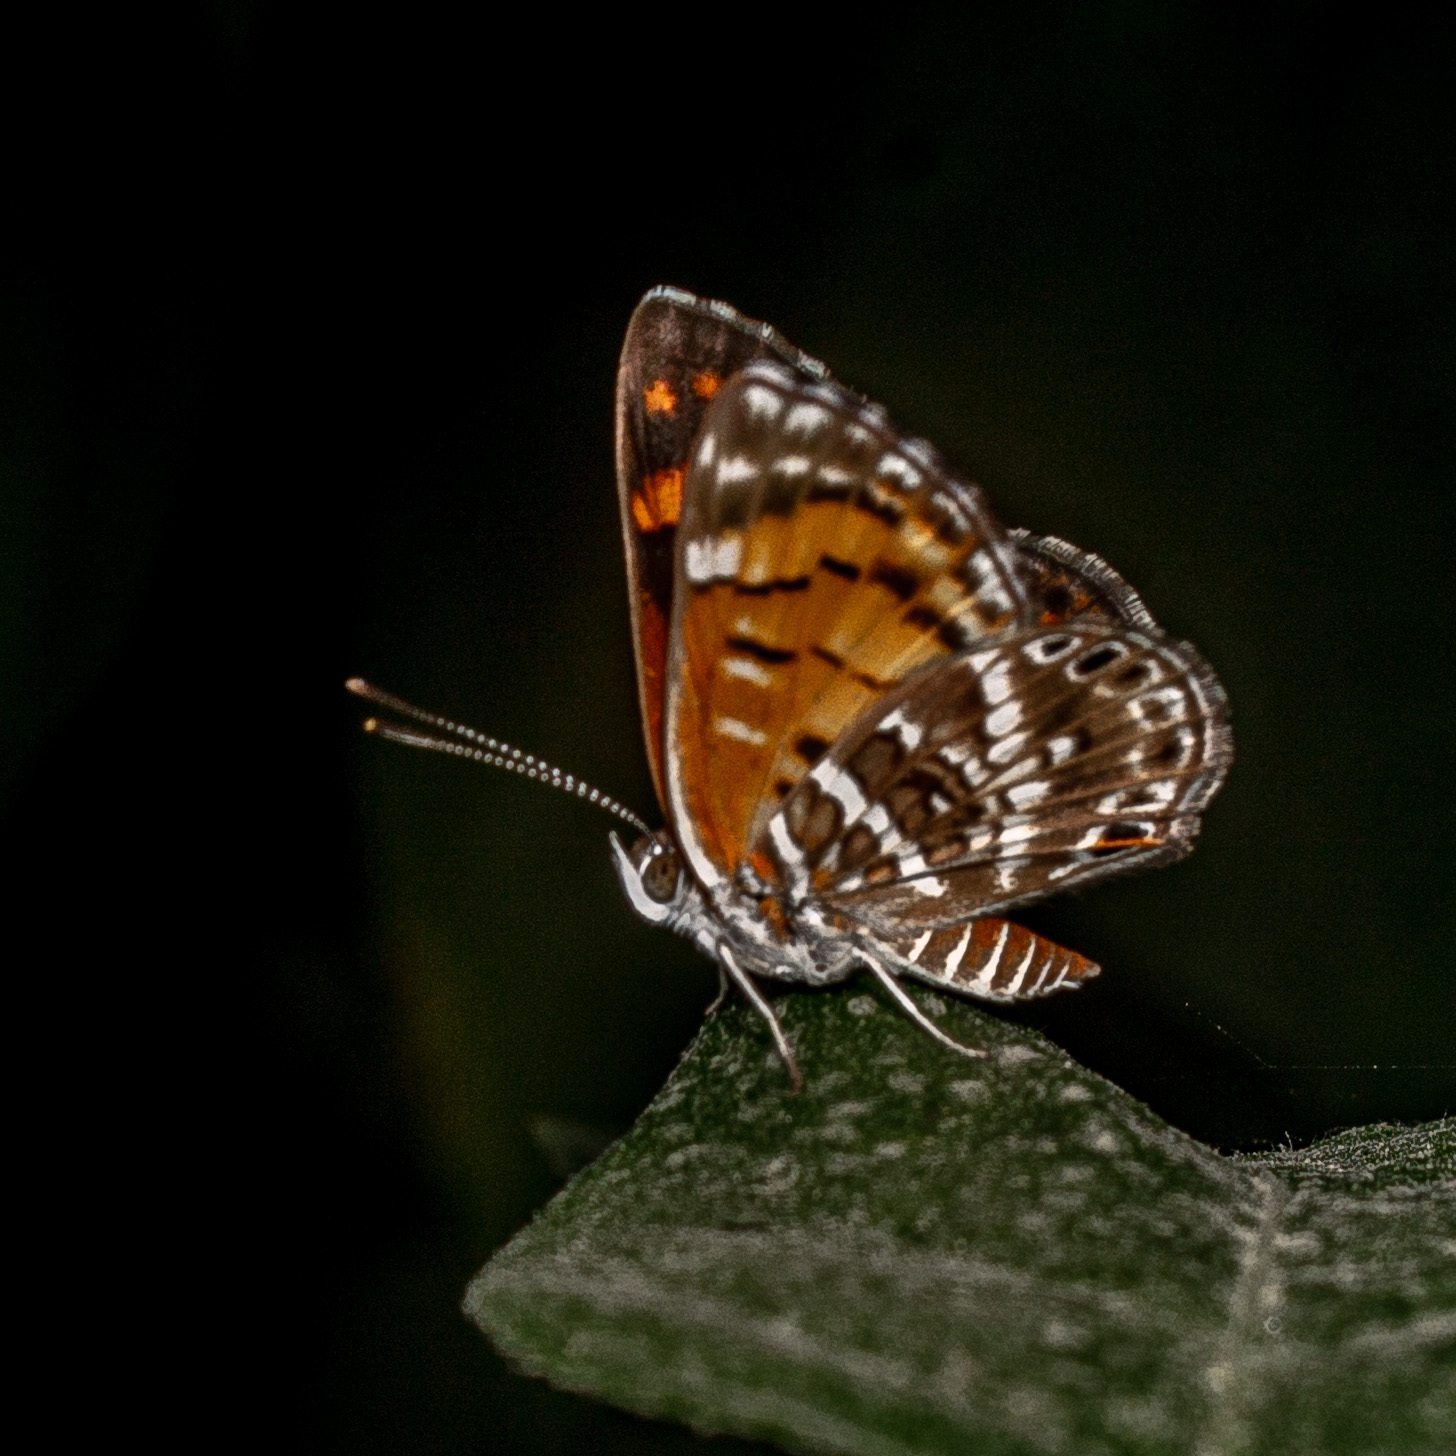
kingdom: Animalia
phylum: Arthropoda
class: Insecta
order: Lepidoptera
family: Lycaenidae
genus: Aricoris
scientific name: Aricoris erostratus
